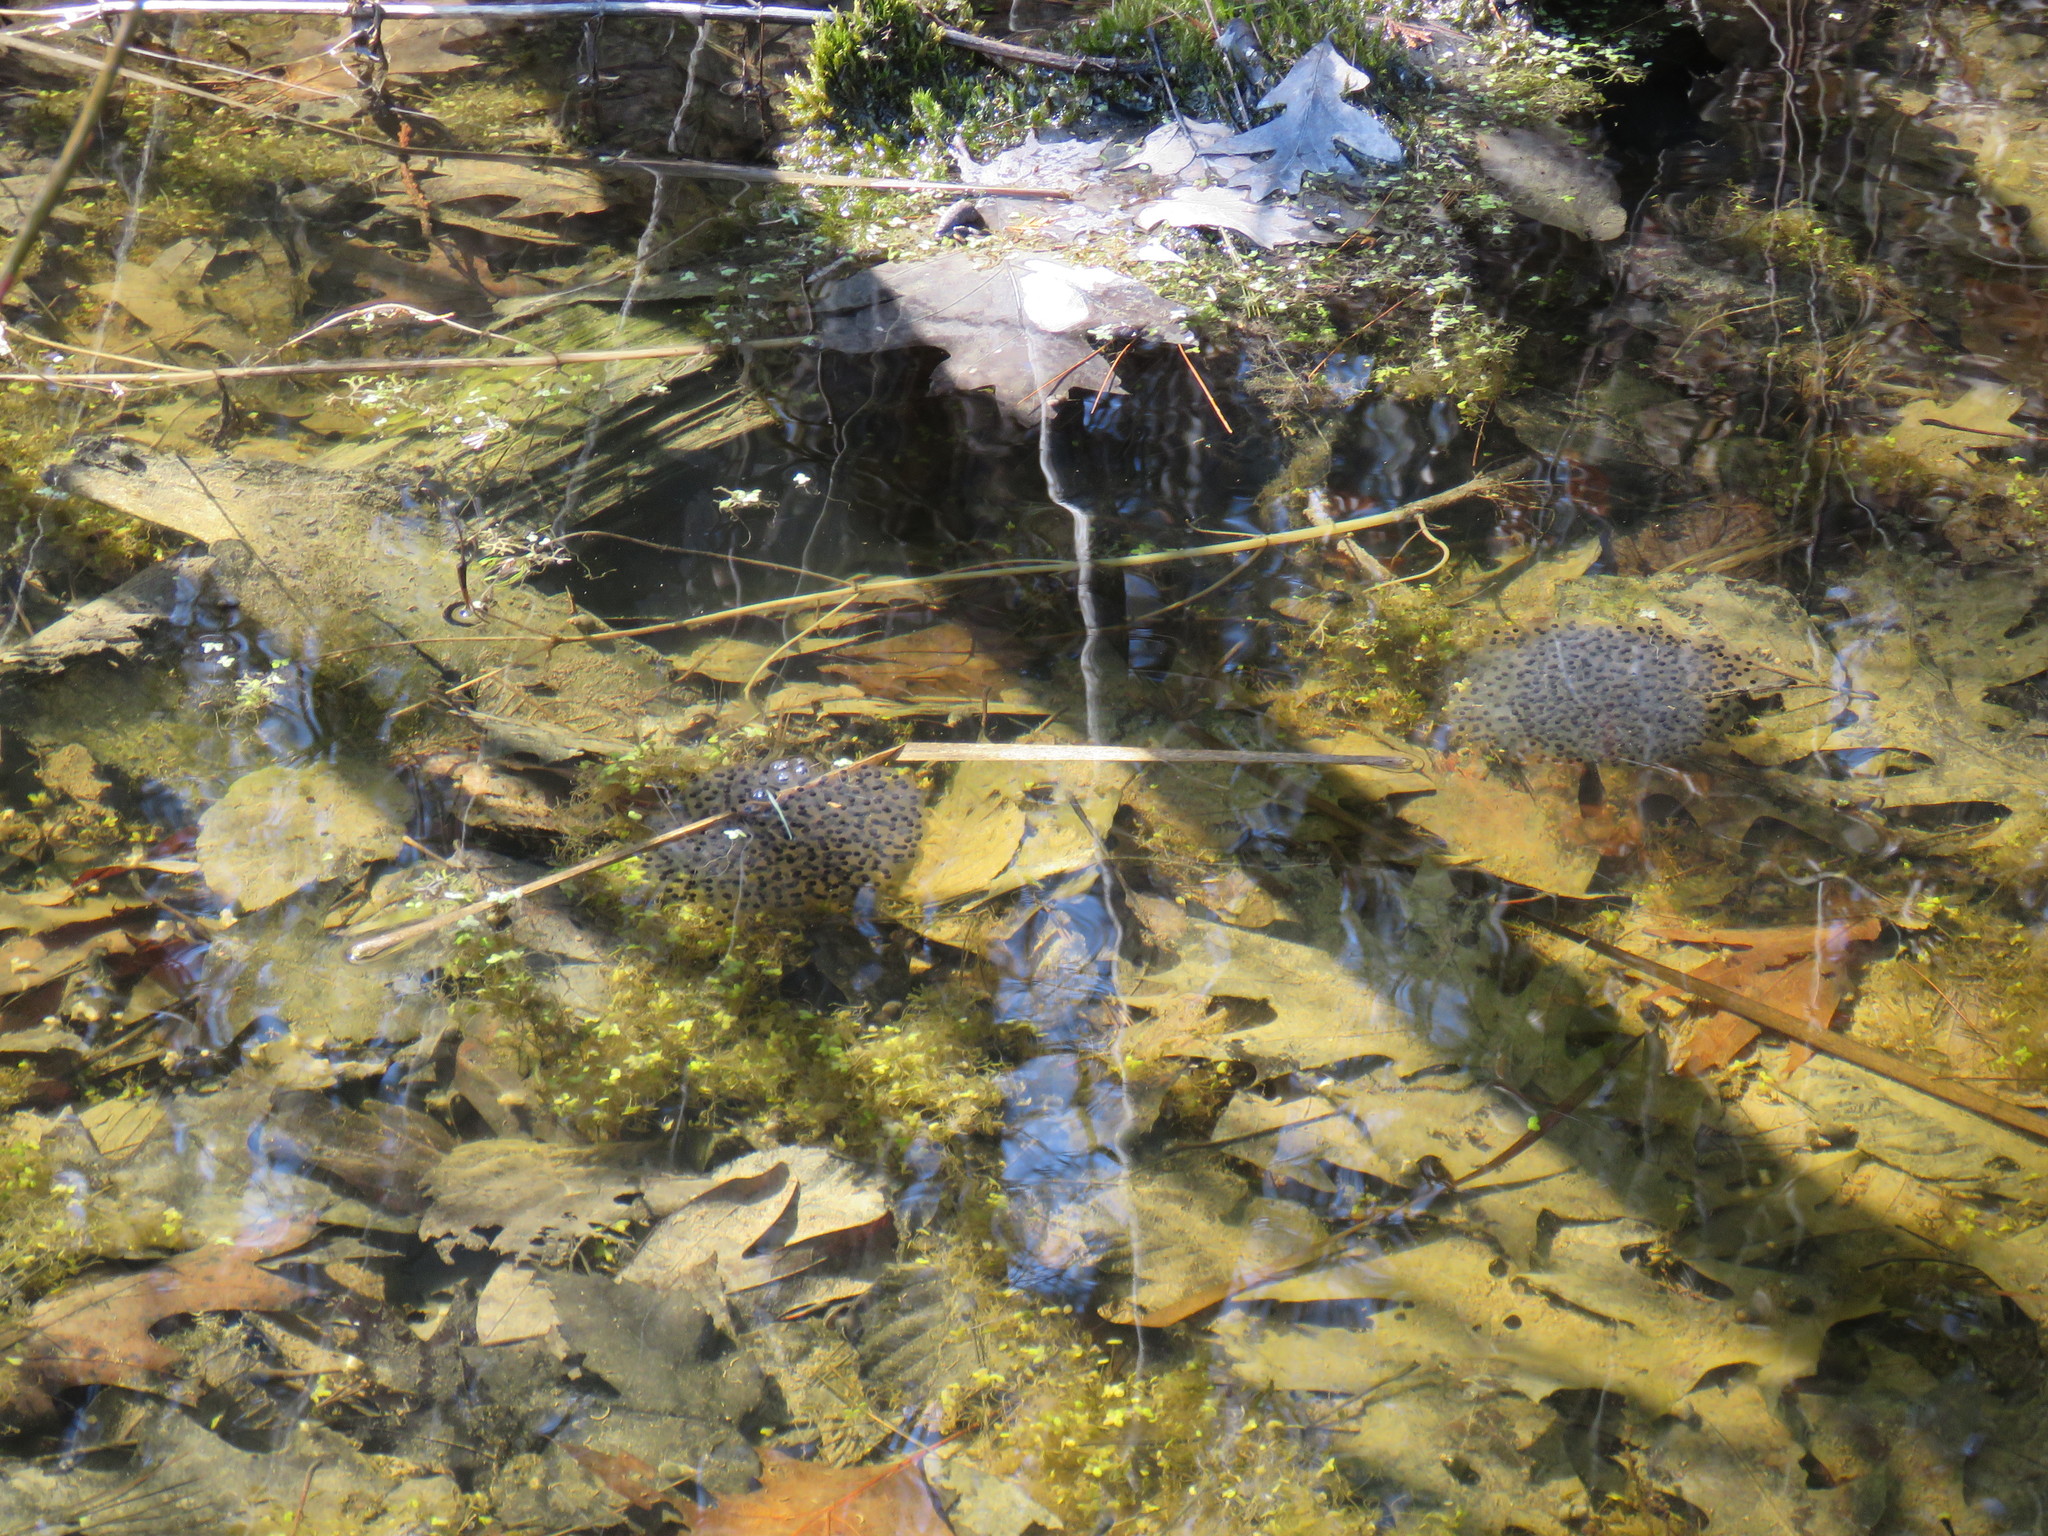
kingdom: Animalia
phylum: Chordata
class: Amphibia
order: Anura
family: Ranidae
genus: Lithobates
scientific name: Lithobates sylvaticus
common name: Wood frog
